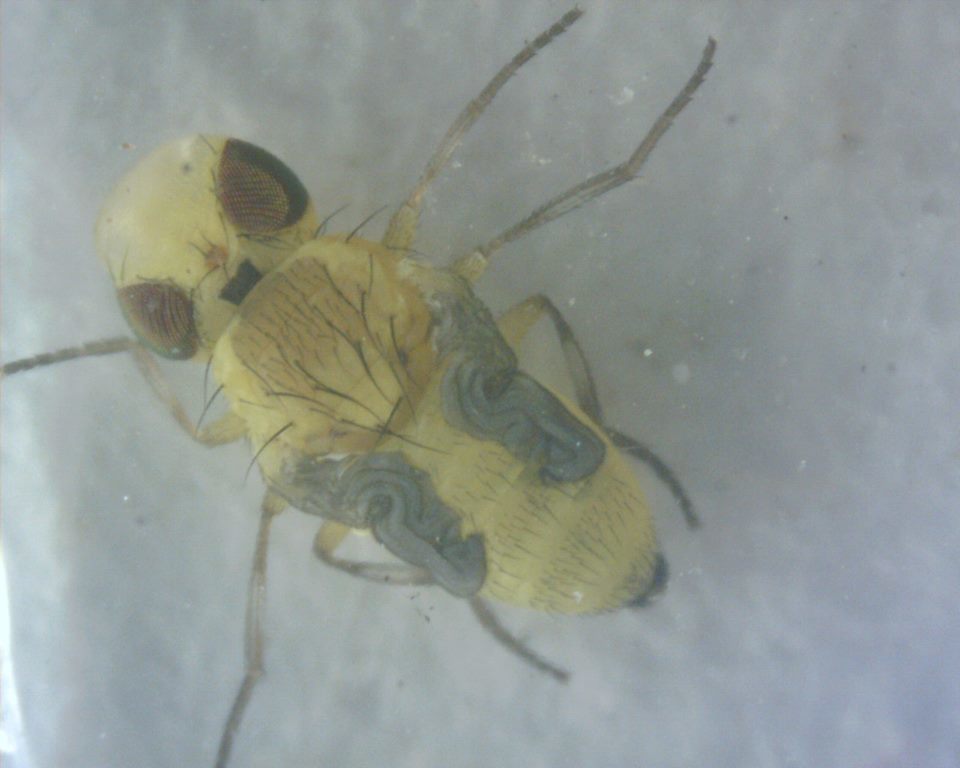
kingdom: Animalia
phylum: Arthropoda
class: Insecta
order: Diptera
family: Agromyzidae
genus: Liriomyza
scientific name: Liriomyza bryoniae
